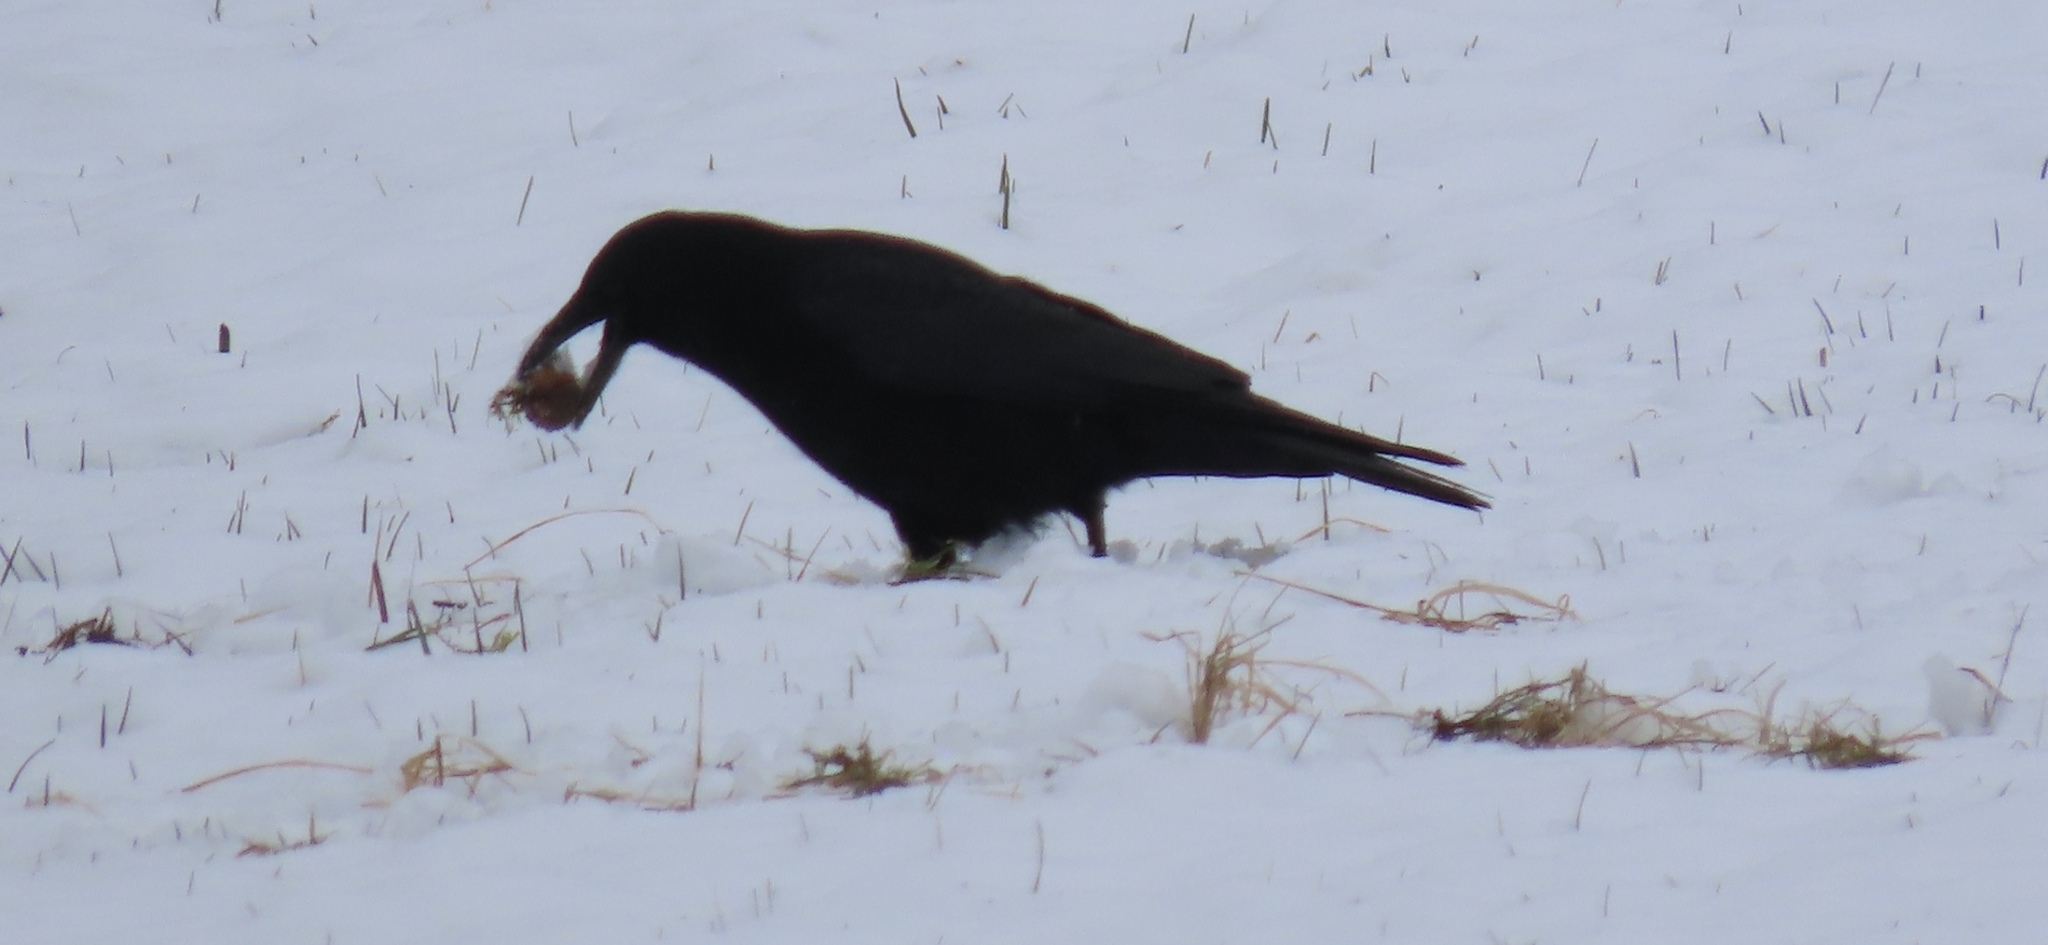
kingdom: Animalia
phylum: Chordata
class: Aves
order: Passeriformes
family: Corvidae
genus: Corvus
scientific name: Corvus corone
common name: Carrion crow
